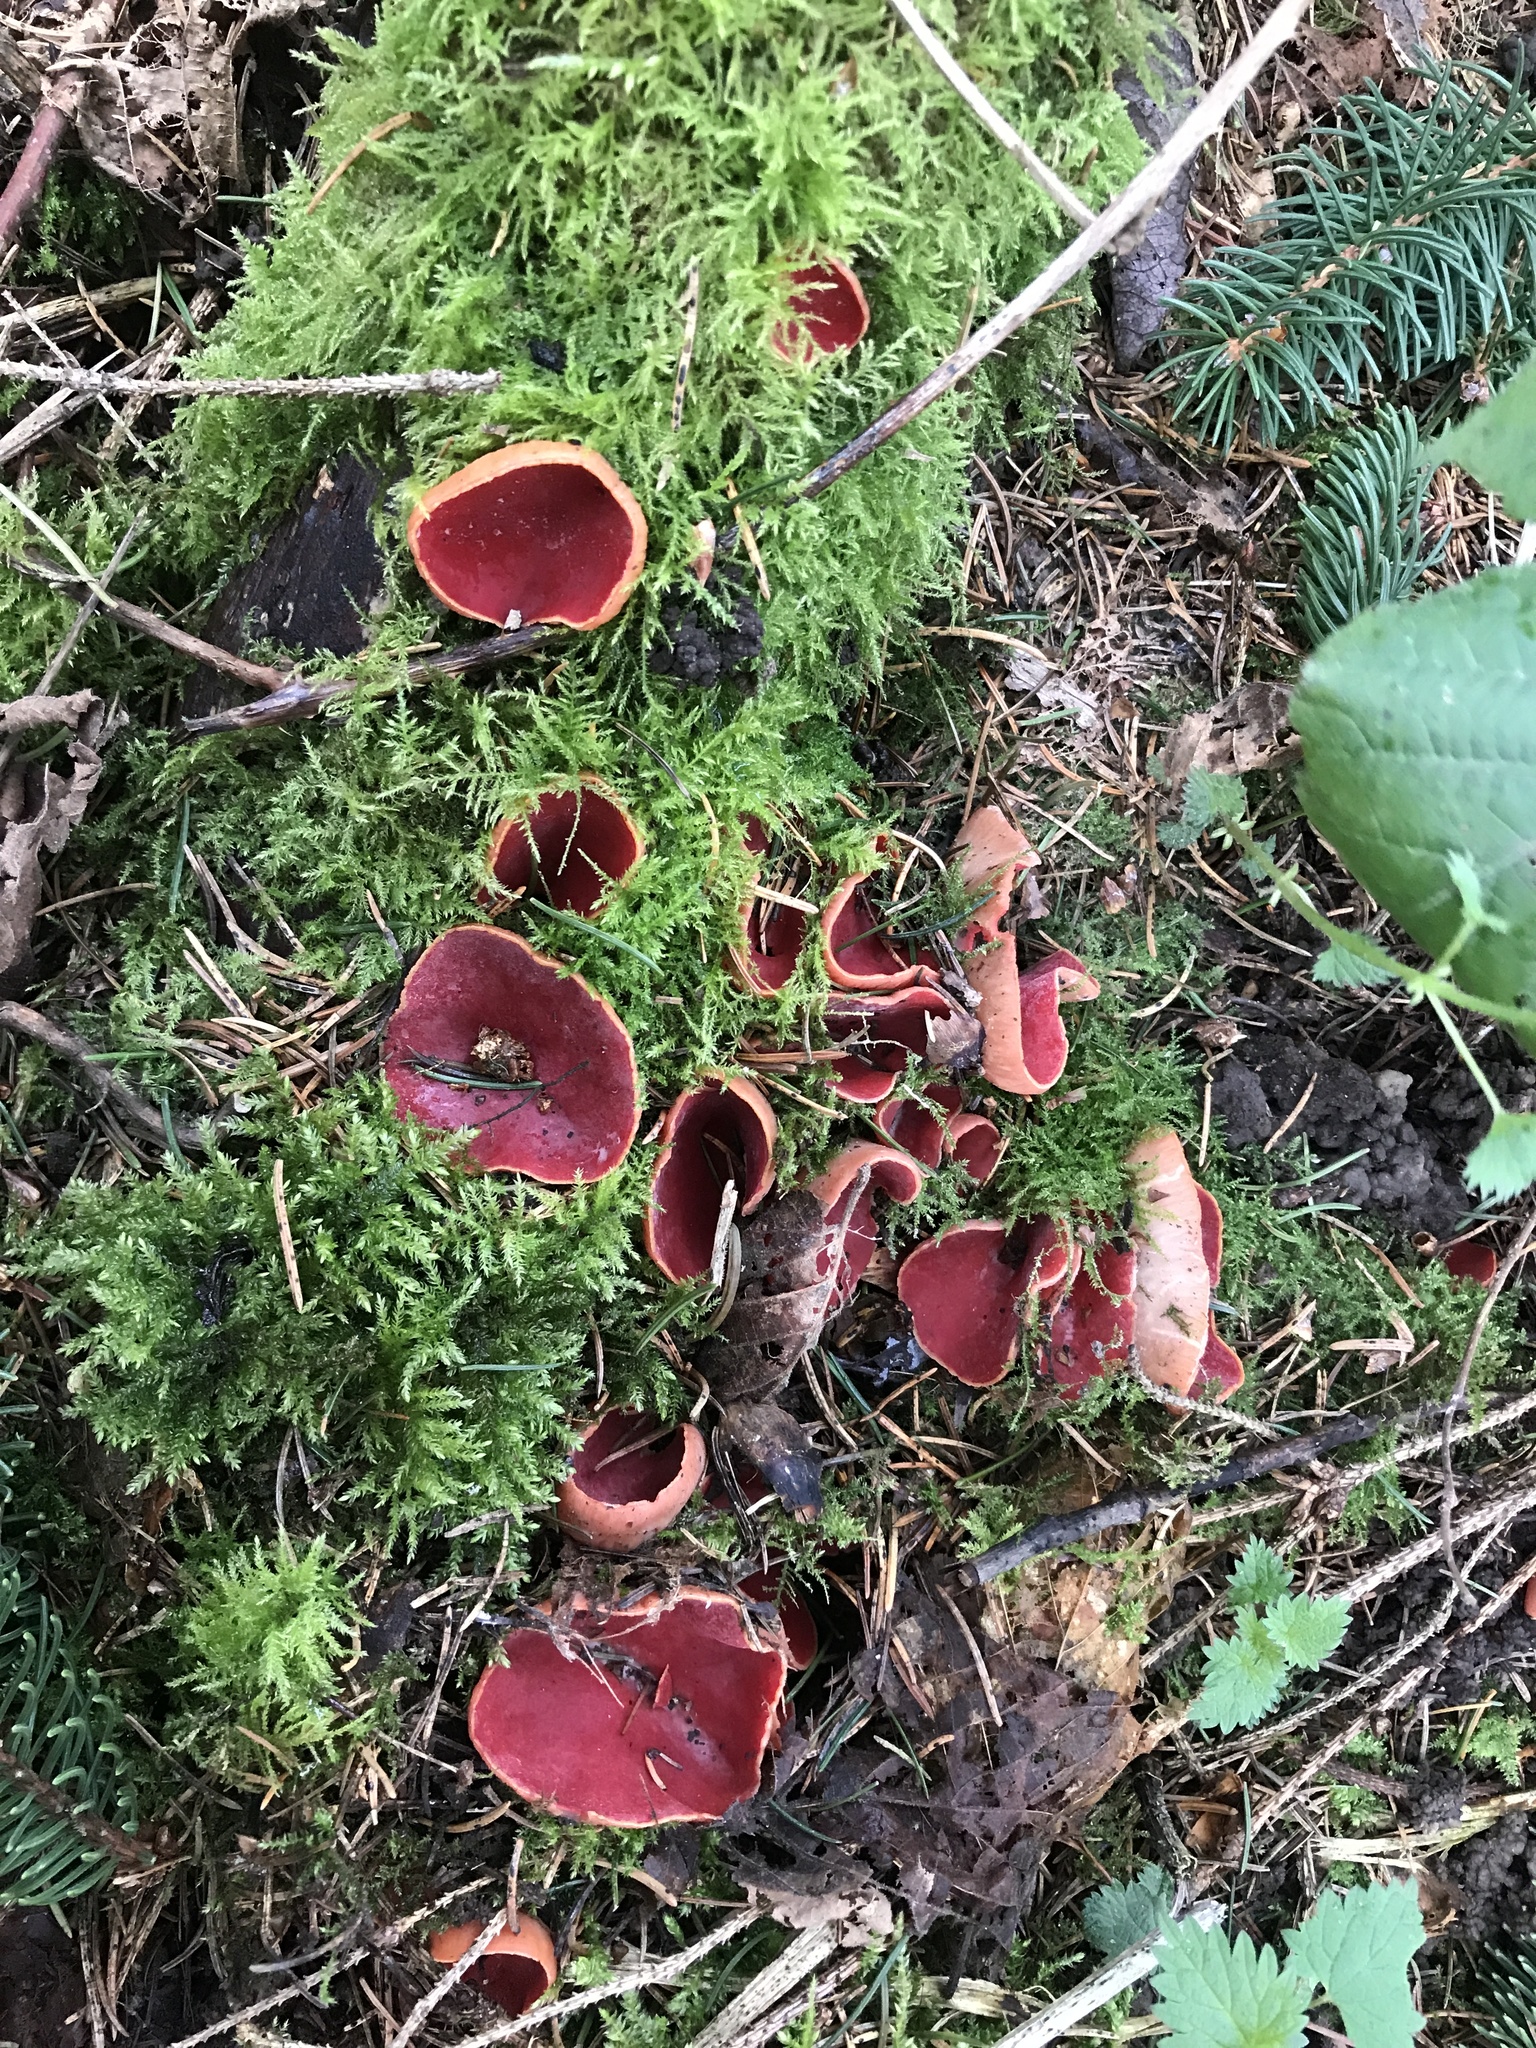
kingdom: Fungi
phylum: Ascomycota
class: Pezizomycetes
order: Pezizales
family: Sarcoscyphaceae
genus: Sarcoscypha
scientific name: Sarcoscypha
